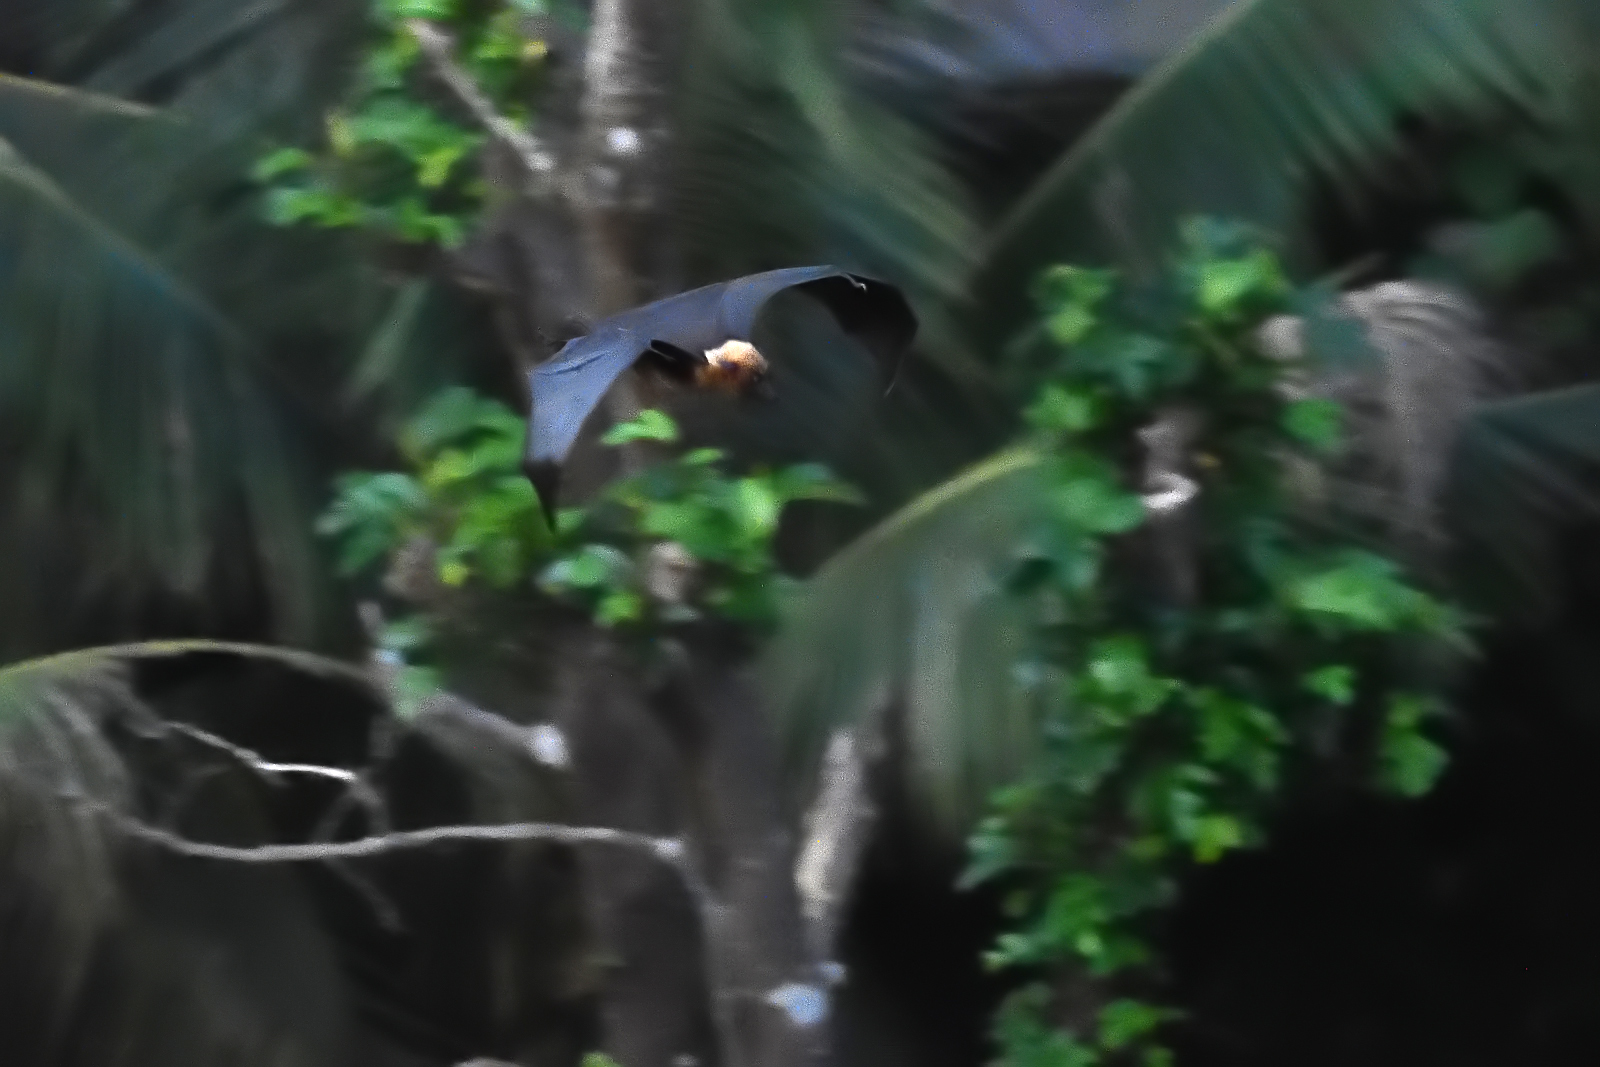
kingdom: Animalia
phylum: Chordata
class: Mammalia
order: Chiroptera
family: Pteropodidae
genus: Pteropus
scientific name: Pteropus vampyrus
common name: Large flying fox
